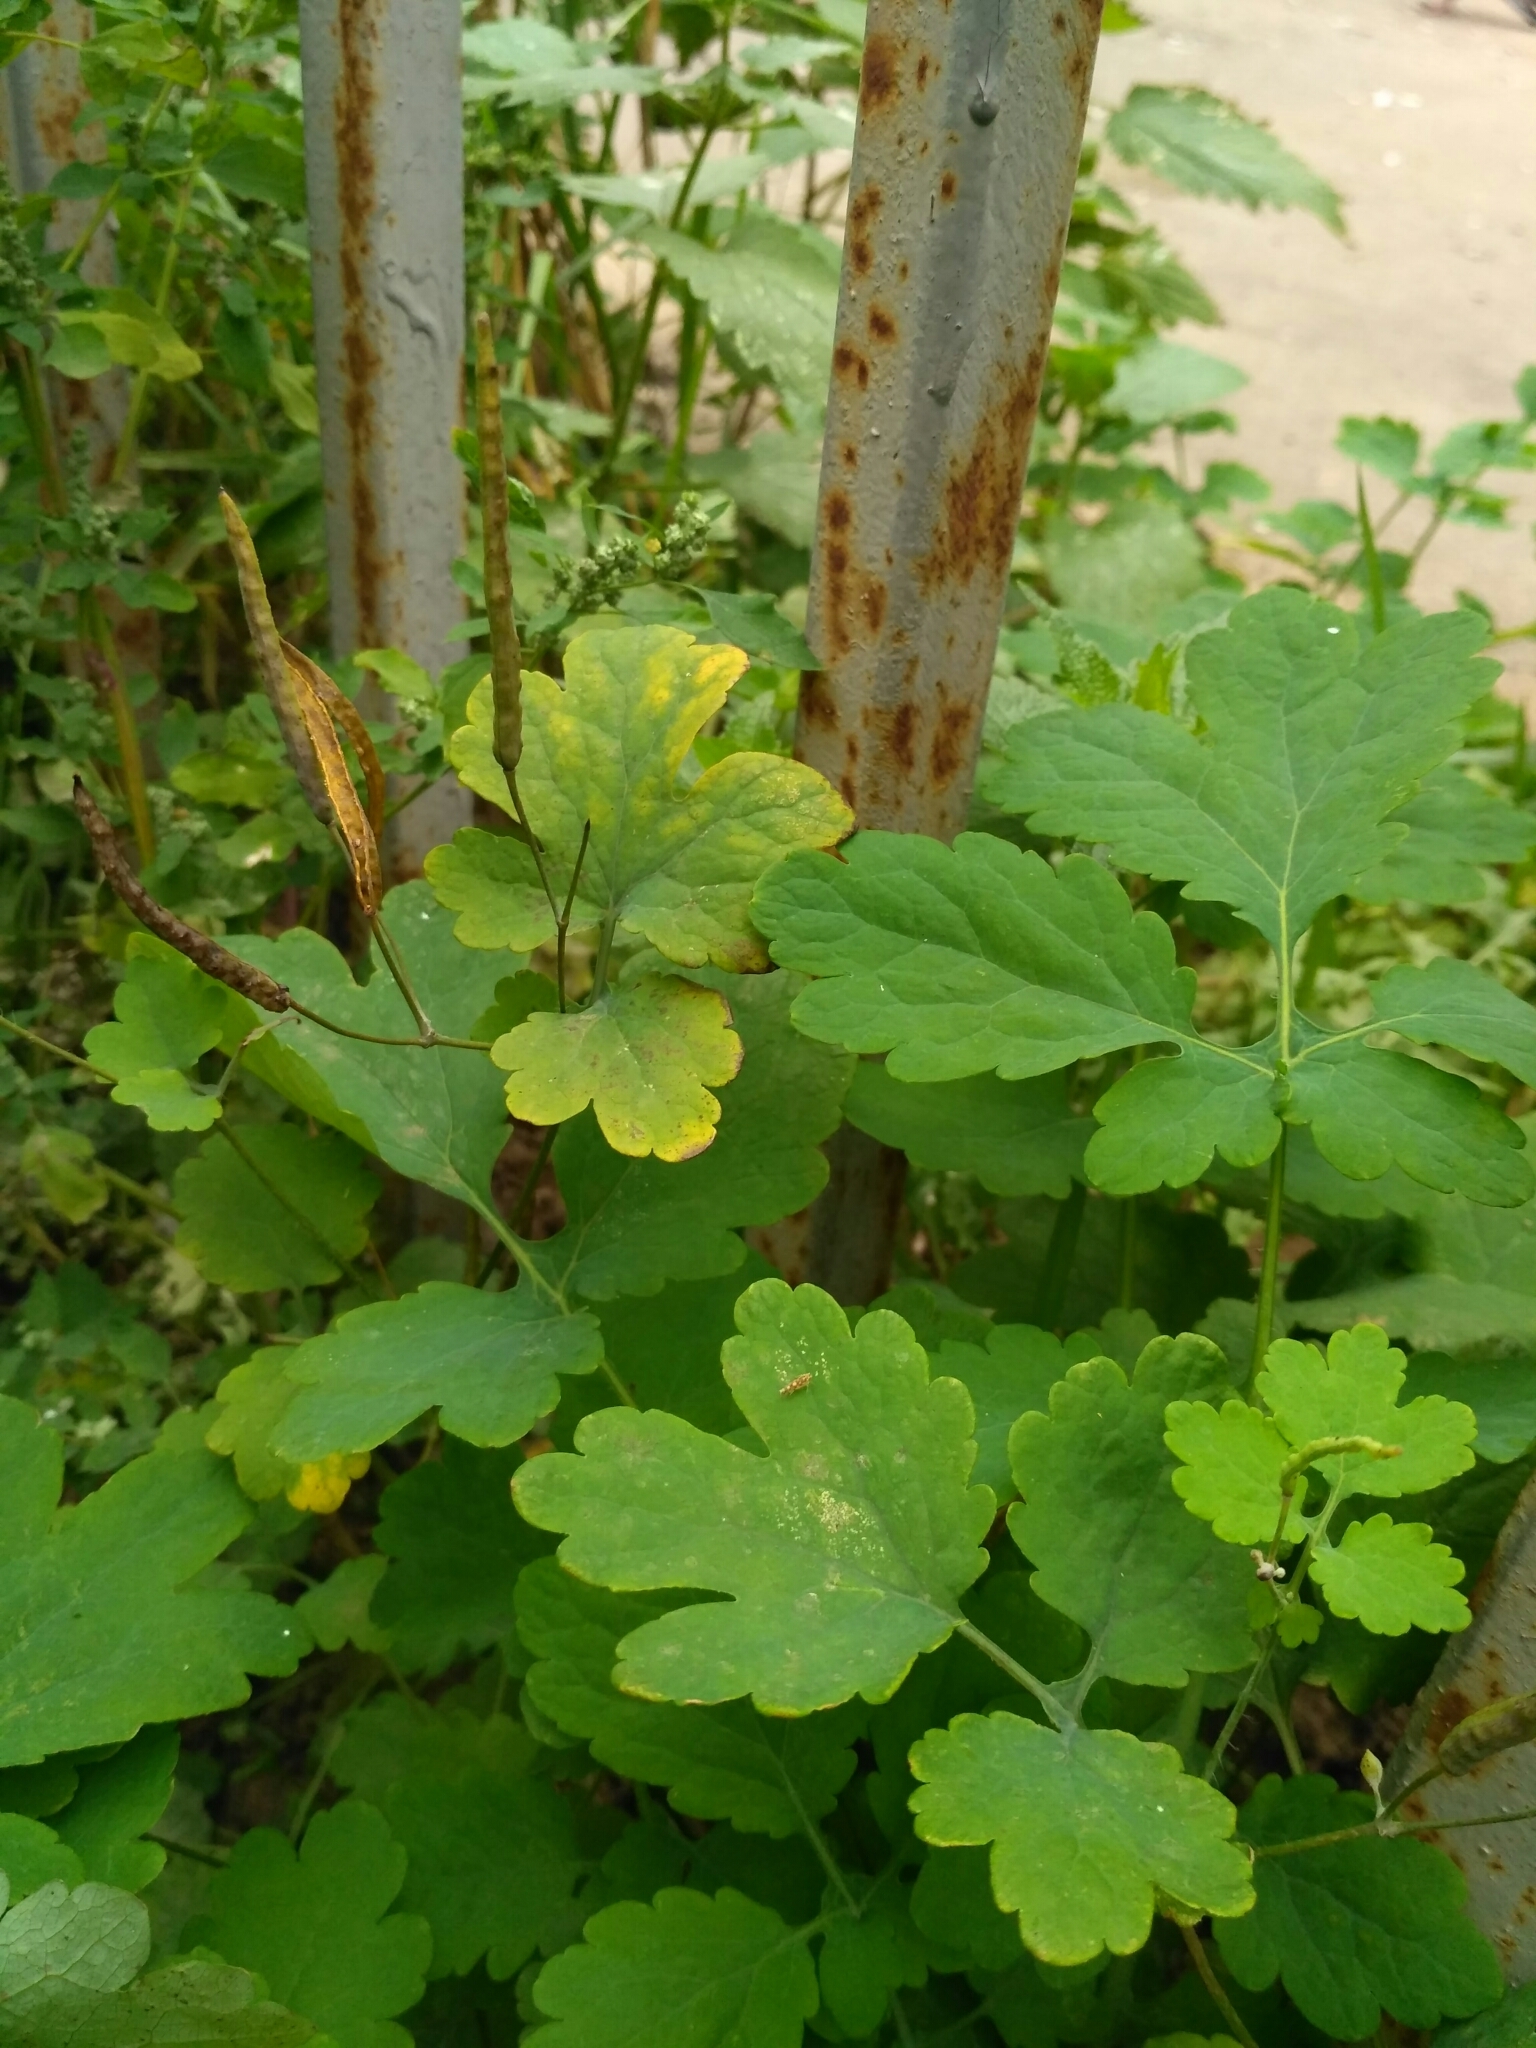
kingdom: Plantae
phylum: Tracheophyta
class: Magnoliopsida
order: Ranunculales
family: Papaveraceae
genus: Chelidonium
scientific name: Chelidonium majus
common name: Greater celandine
